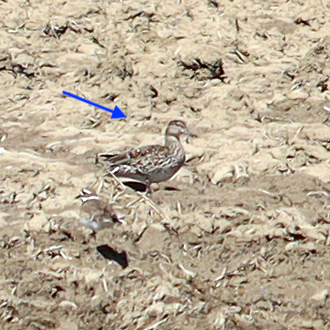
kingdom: Animalia
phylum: Chordata
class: Aves
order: Anseriformes
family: Anatidae
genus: Anas
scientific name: Anas carolinensis
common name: Green-winged teal
